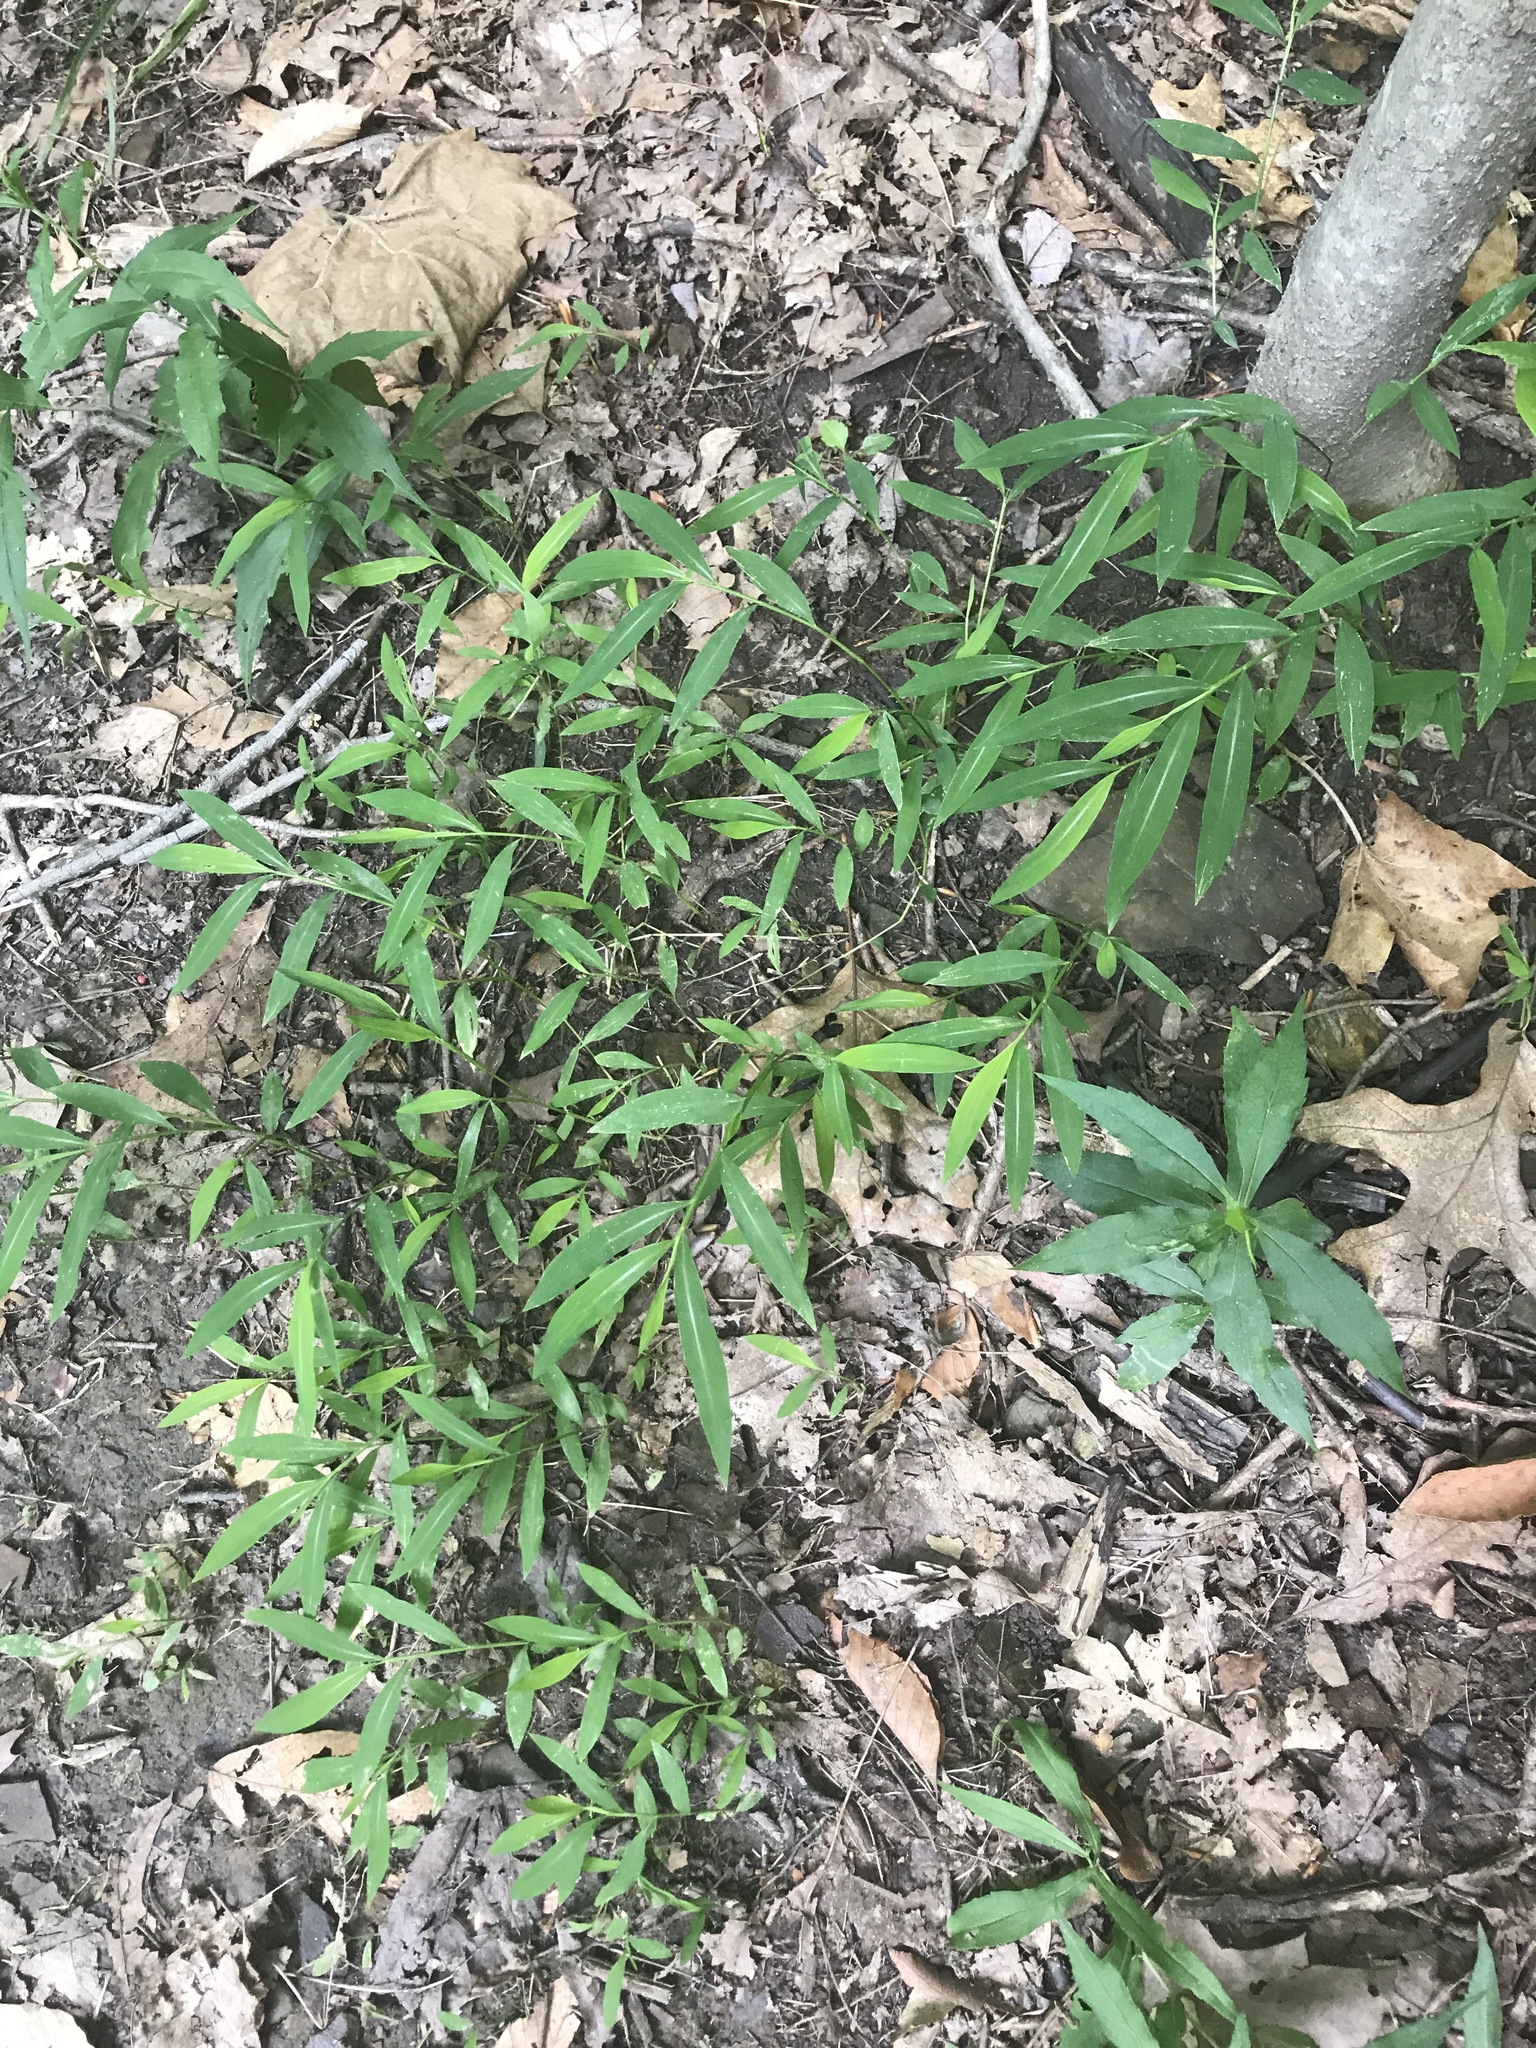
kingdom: Plantae
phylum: Tracheophyta
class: Liliopsida
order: Poales
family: Poaceae
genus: Microstegium
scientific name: Microstegium vimineum
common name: Japanese stiltgrass
